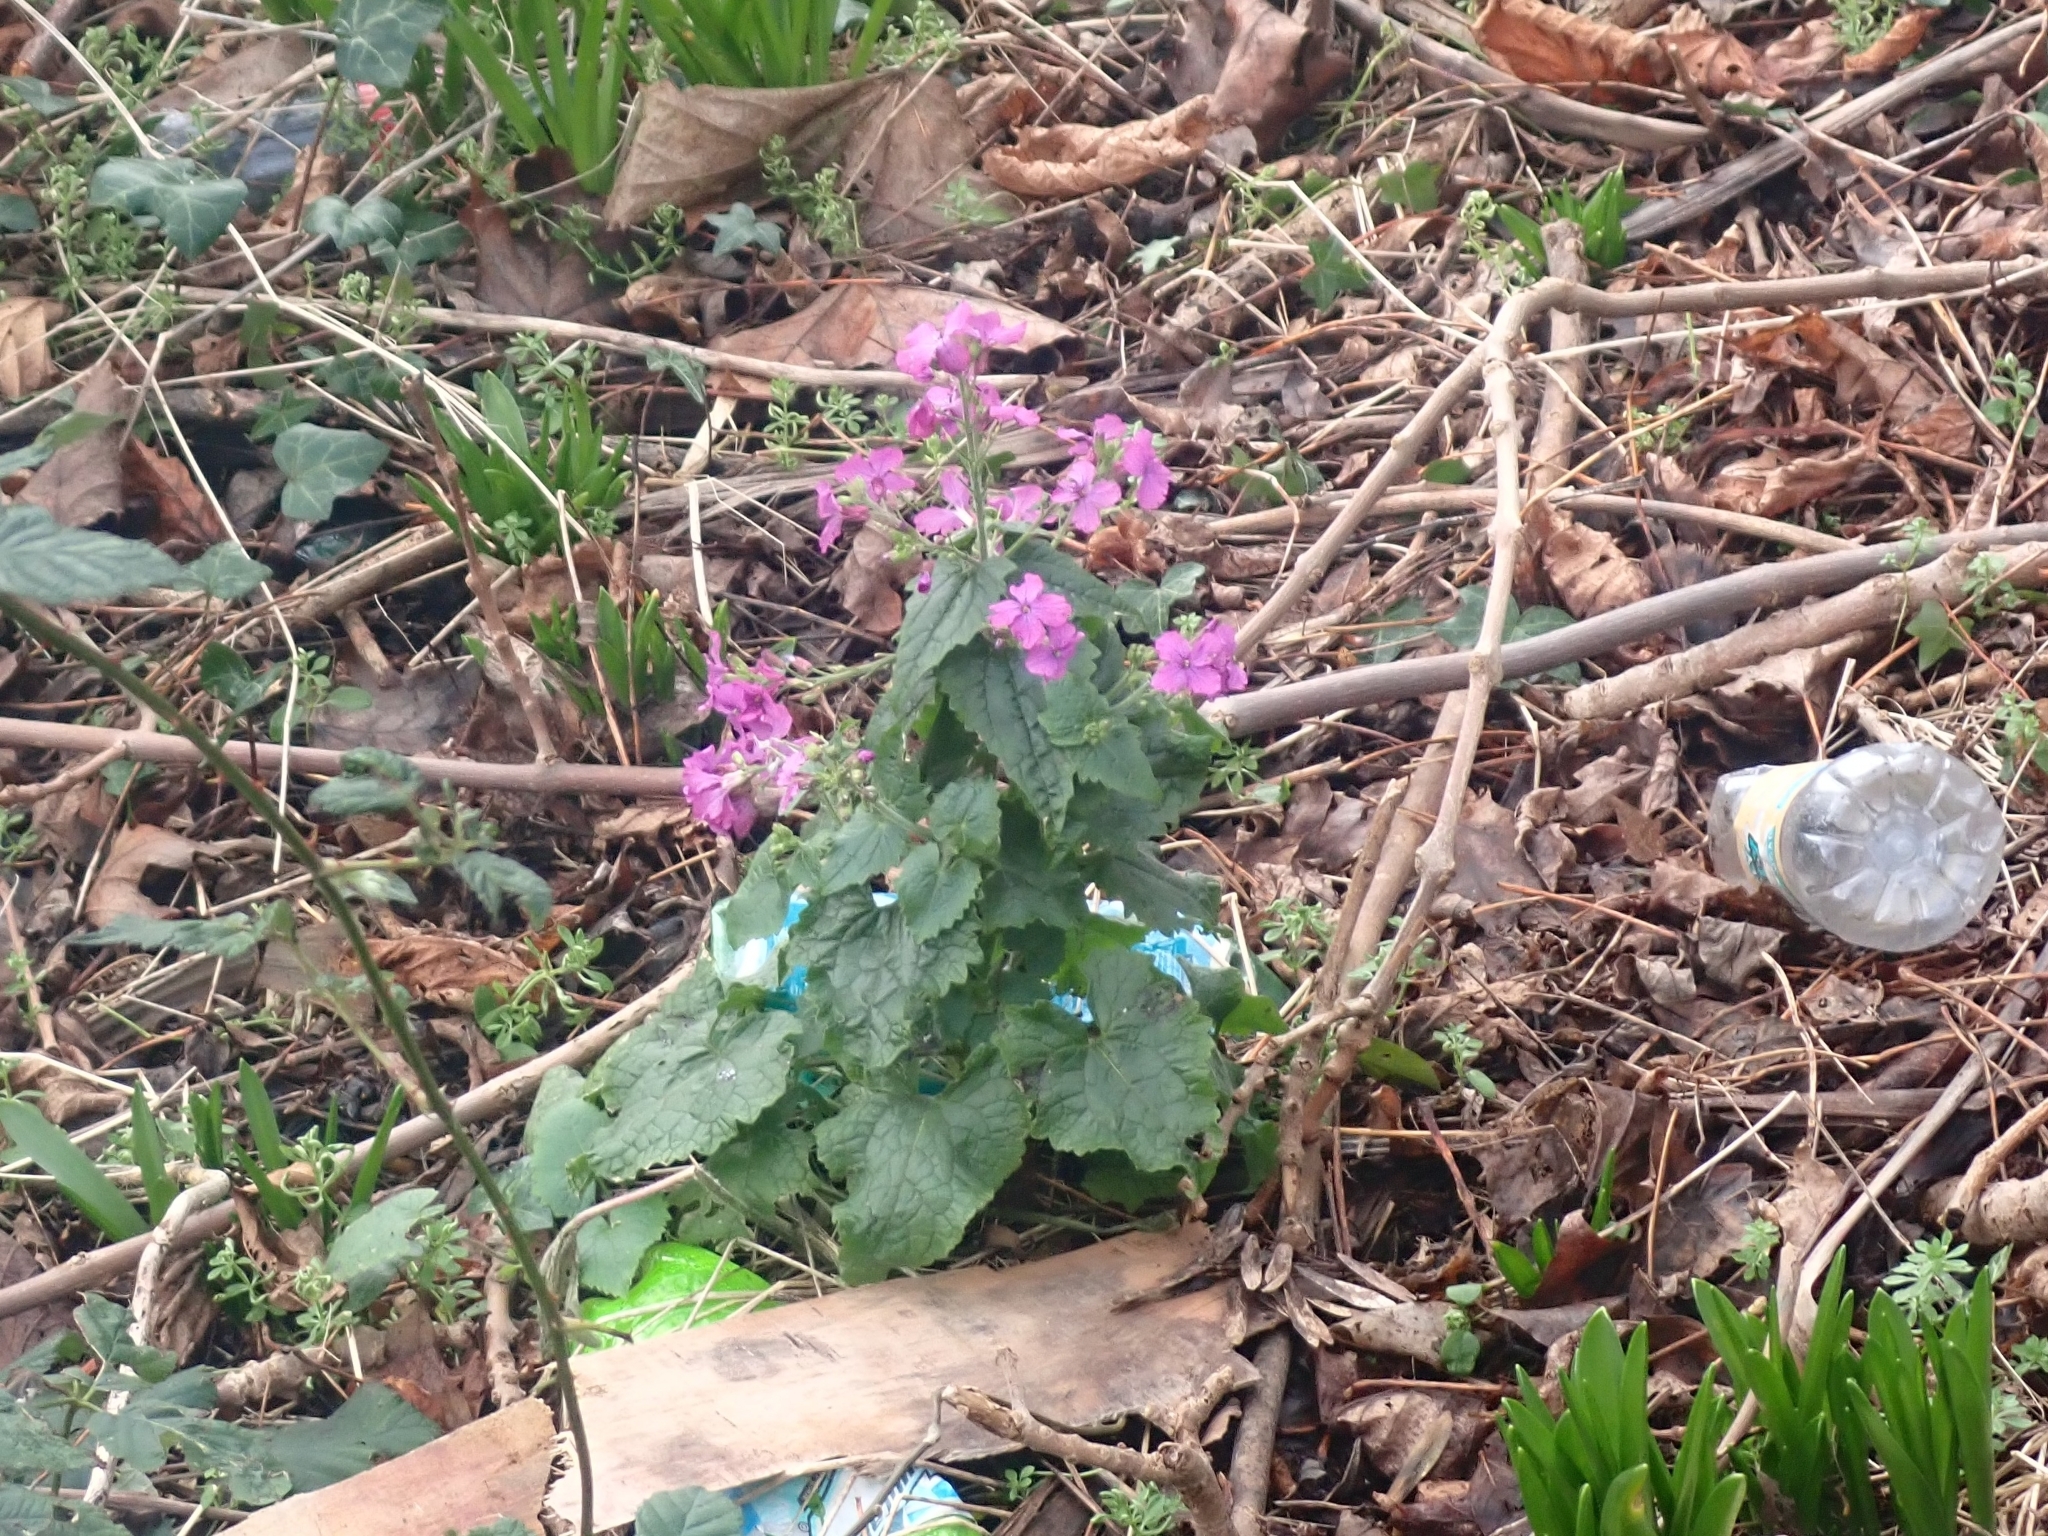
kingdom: Plantae
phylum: Tracheophyta
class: Magnoliopsida
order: Brassicales
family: Brassicaceae
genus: Lunaria
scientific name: Lunaria annua
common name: Honesty
